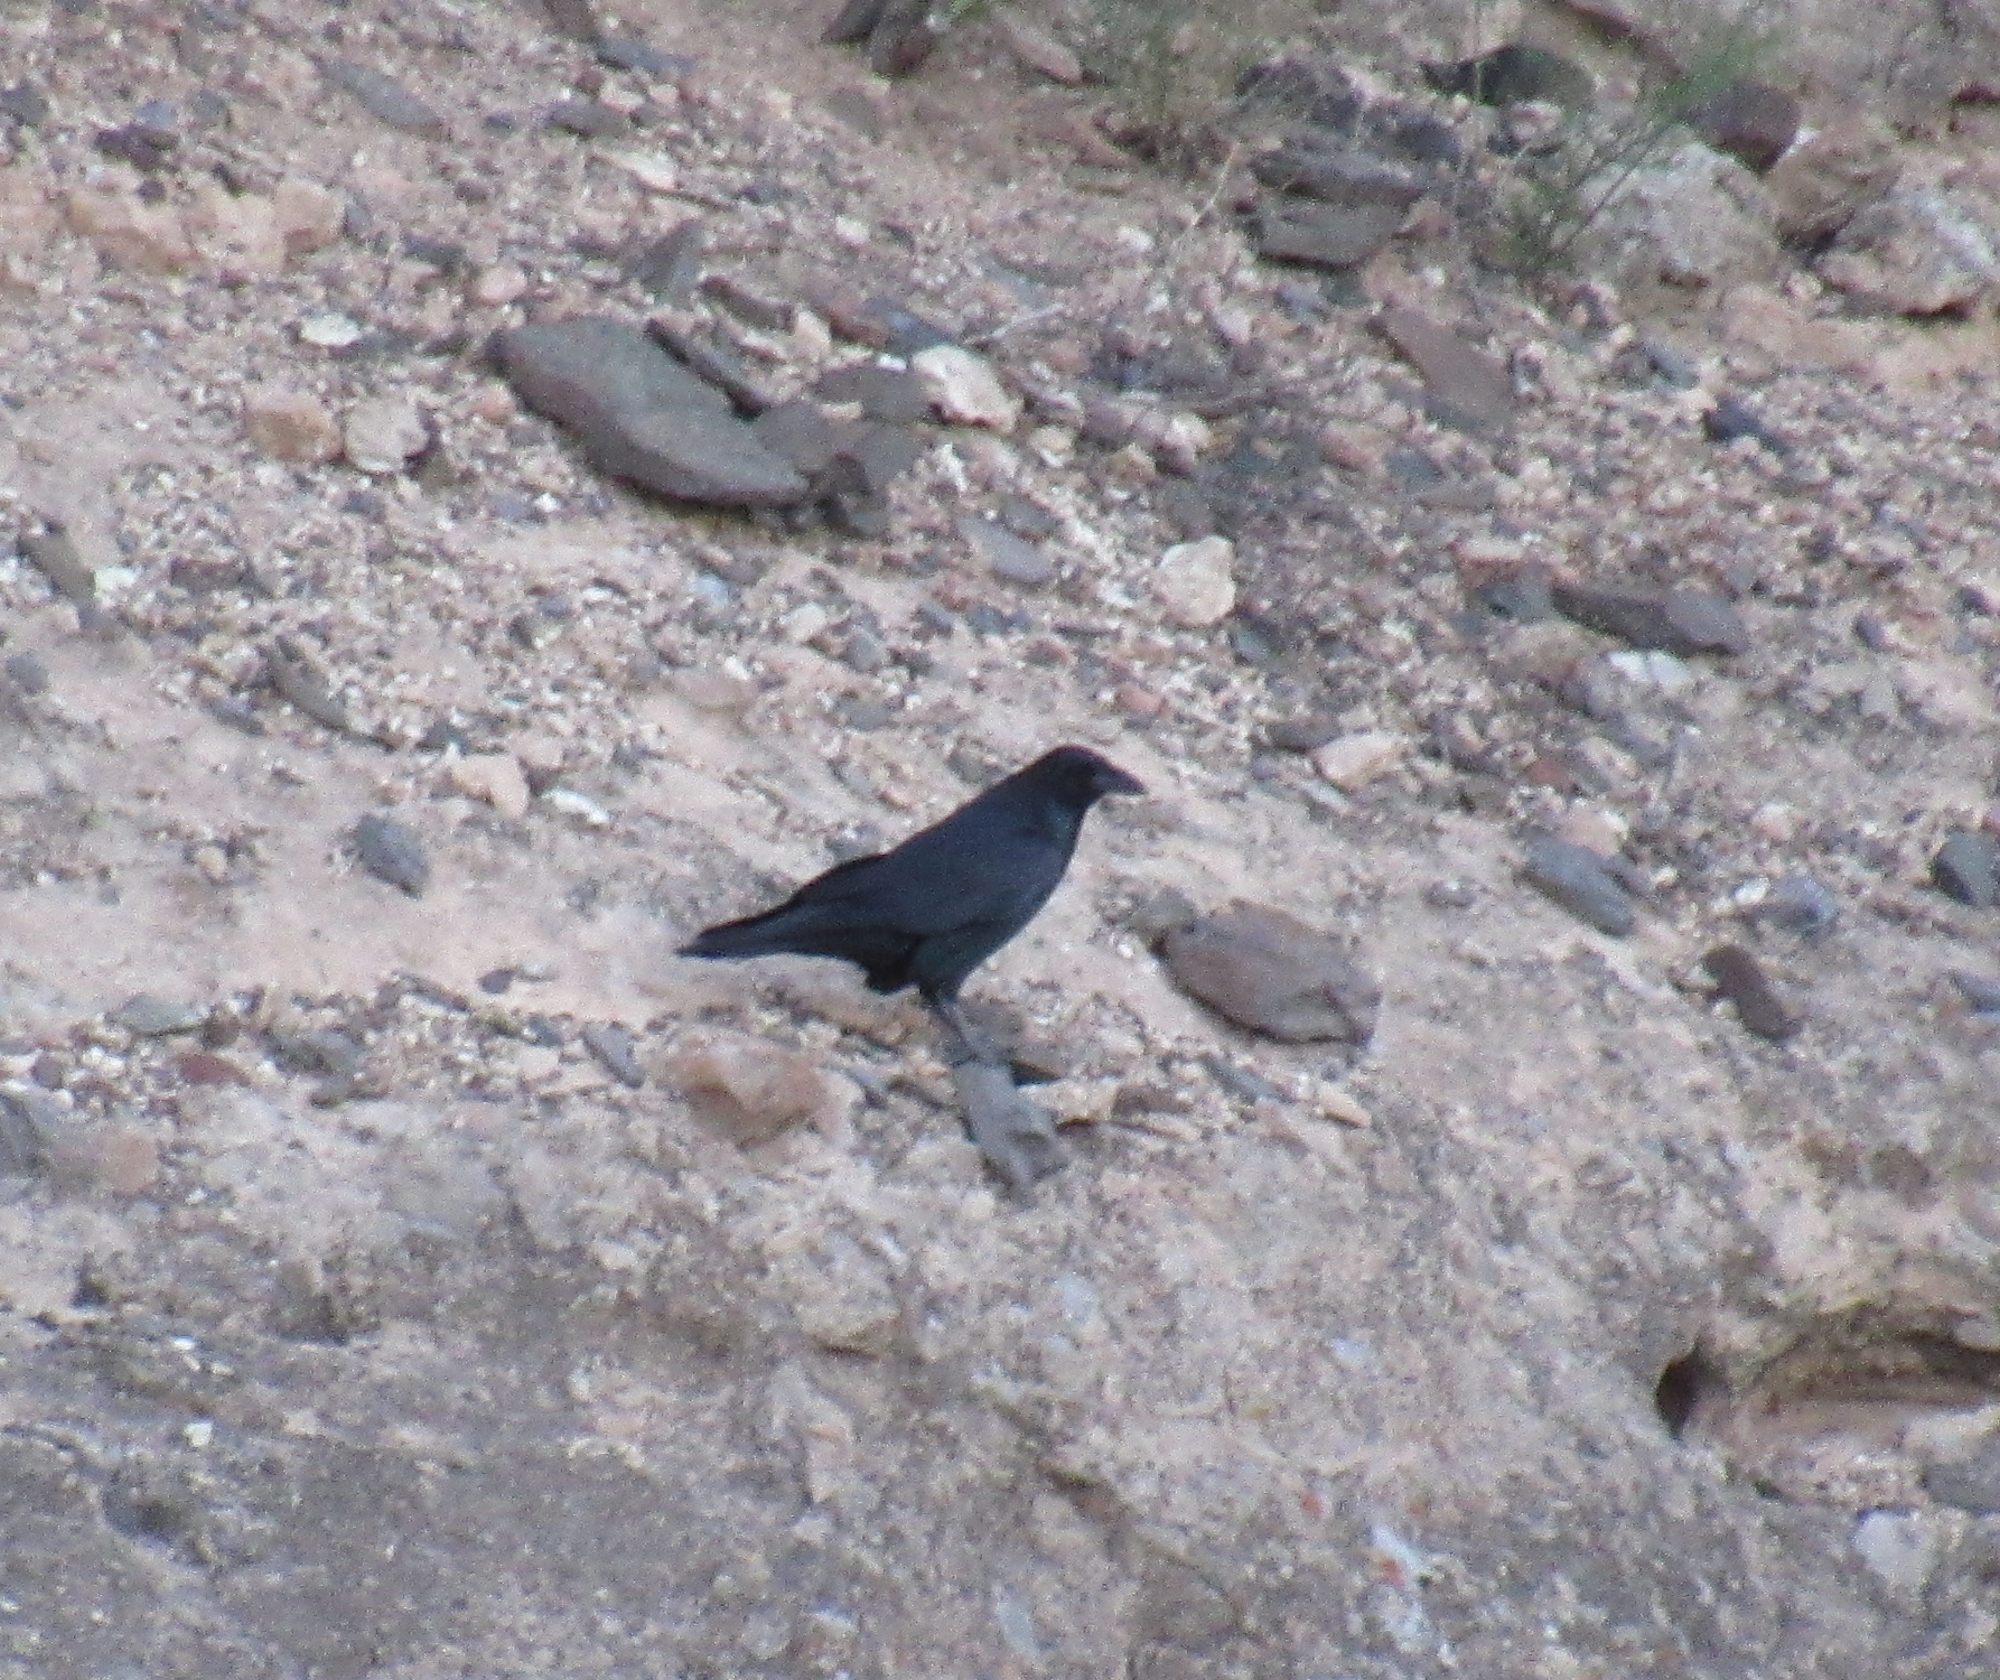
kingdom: Animalia
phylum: Chordata
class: Aves
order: Passeriformes
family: Corvidae
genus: Corvus
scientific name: Corvus corax
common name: Common raven
